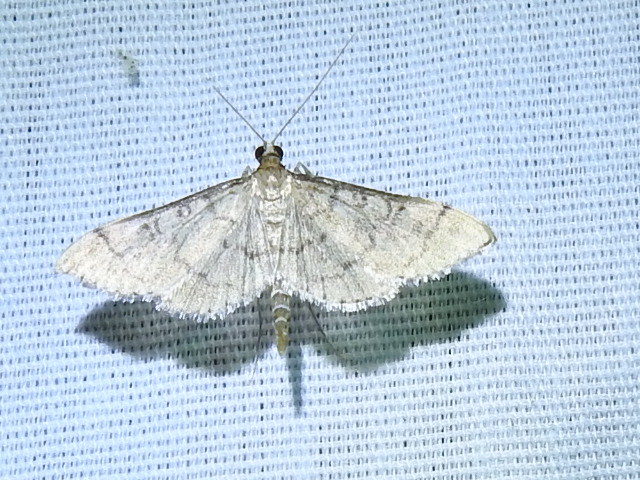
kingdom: Animalia
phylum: Arthropoda
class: Insecta
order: Lepidoptera
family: Crambidae
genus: Lamprosema
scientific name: Lamprosema Blepharomastix ranalis
